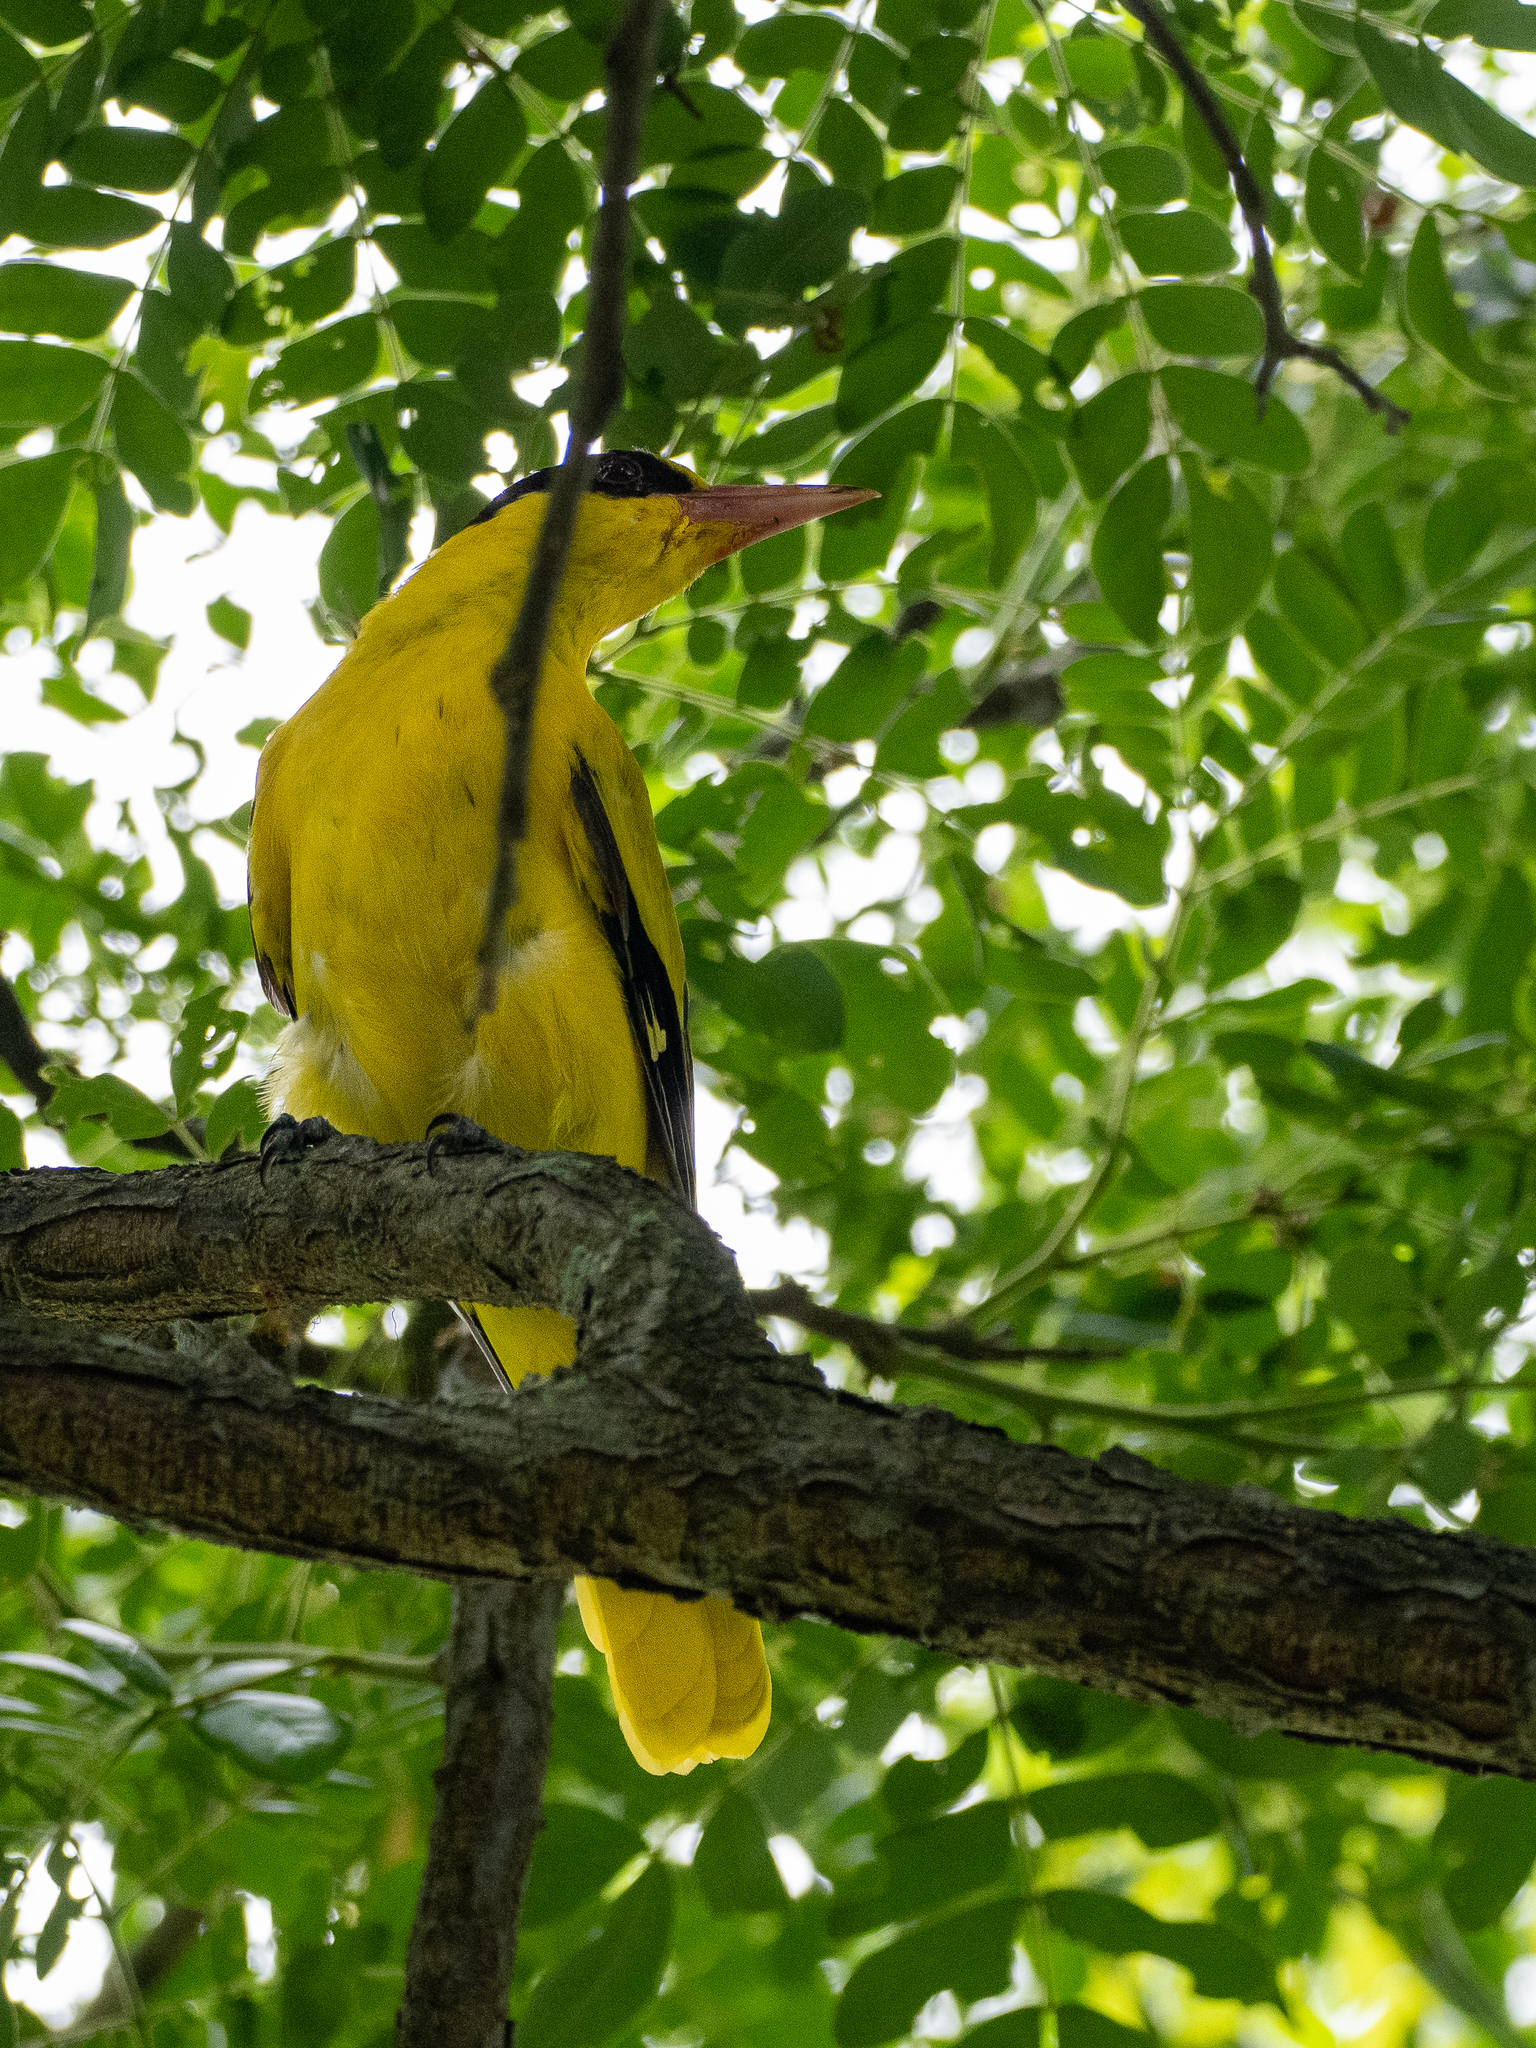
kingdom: Animalia
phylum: Chordata
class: Aves
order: Passeriformes
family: Oriolidae
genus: Oriolus
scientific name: Oriolus chinensis
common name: Black-naped oriole
